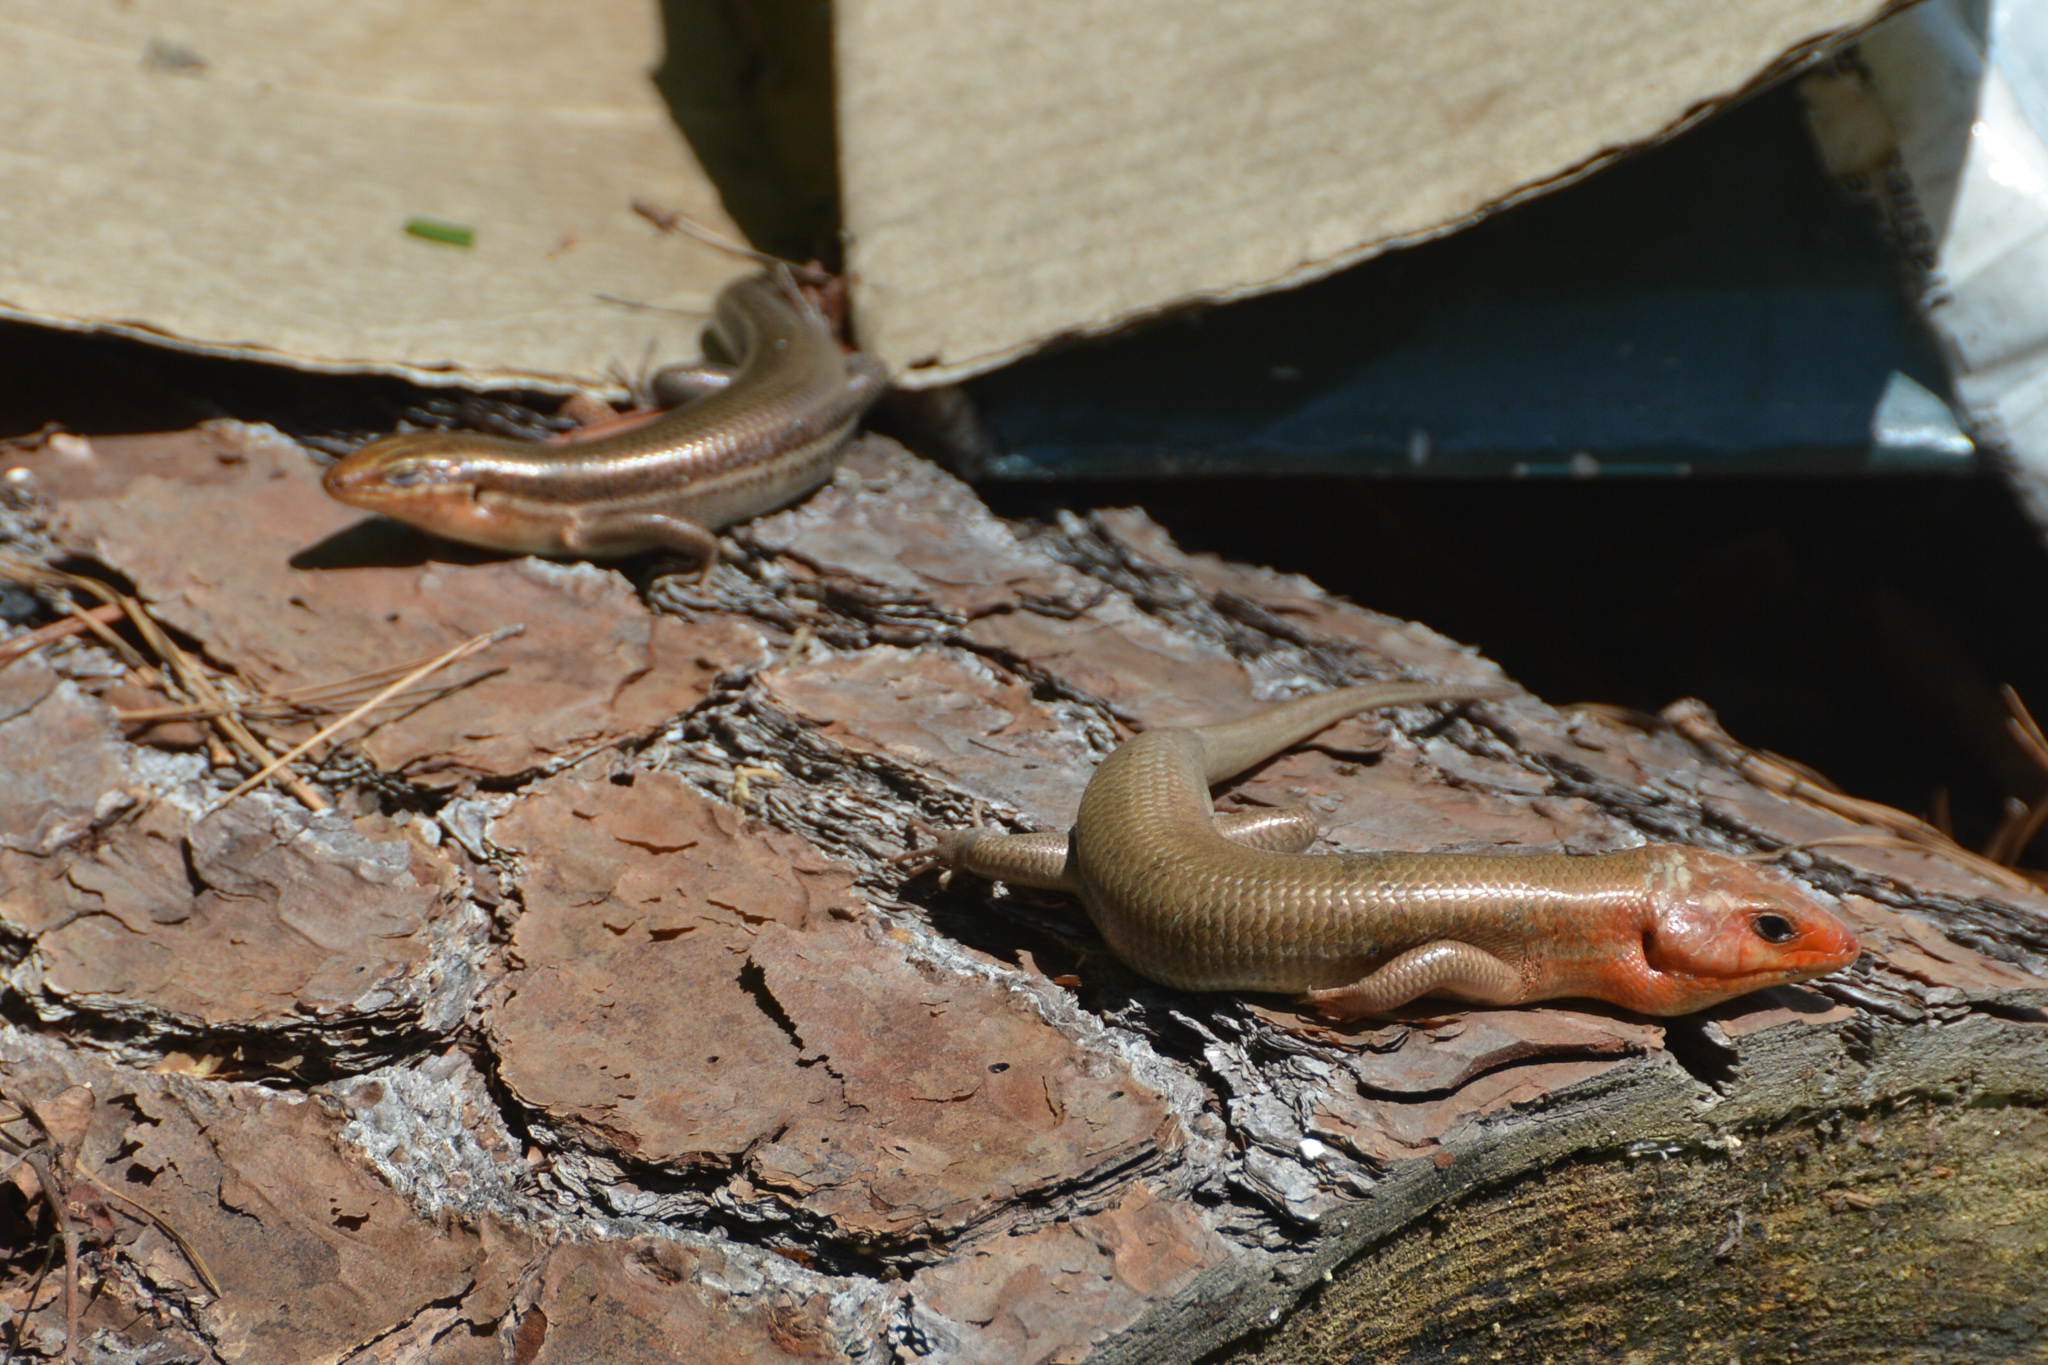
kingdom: Animalia
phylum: Chordata
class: Squamata
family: Scincidae
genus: Plestiodon
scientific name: Plestiodon laticeps
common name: Broadhead skink
